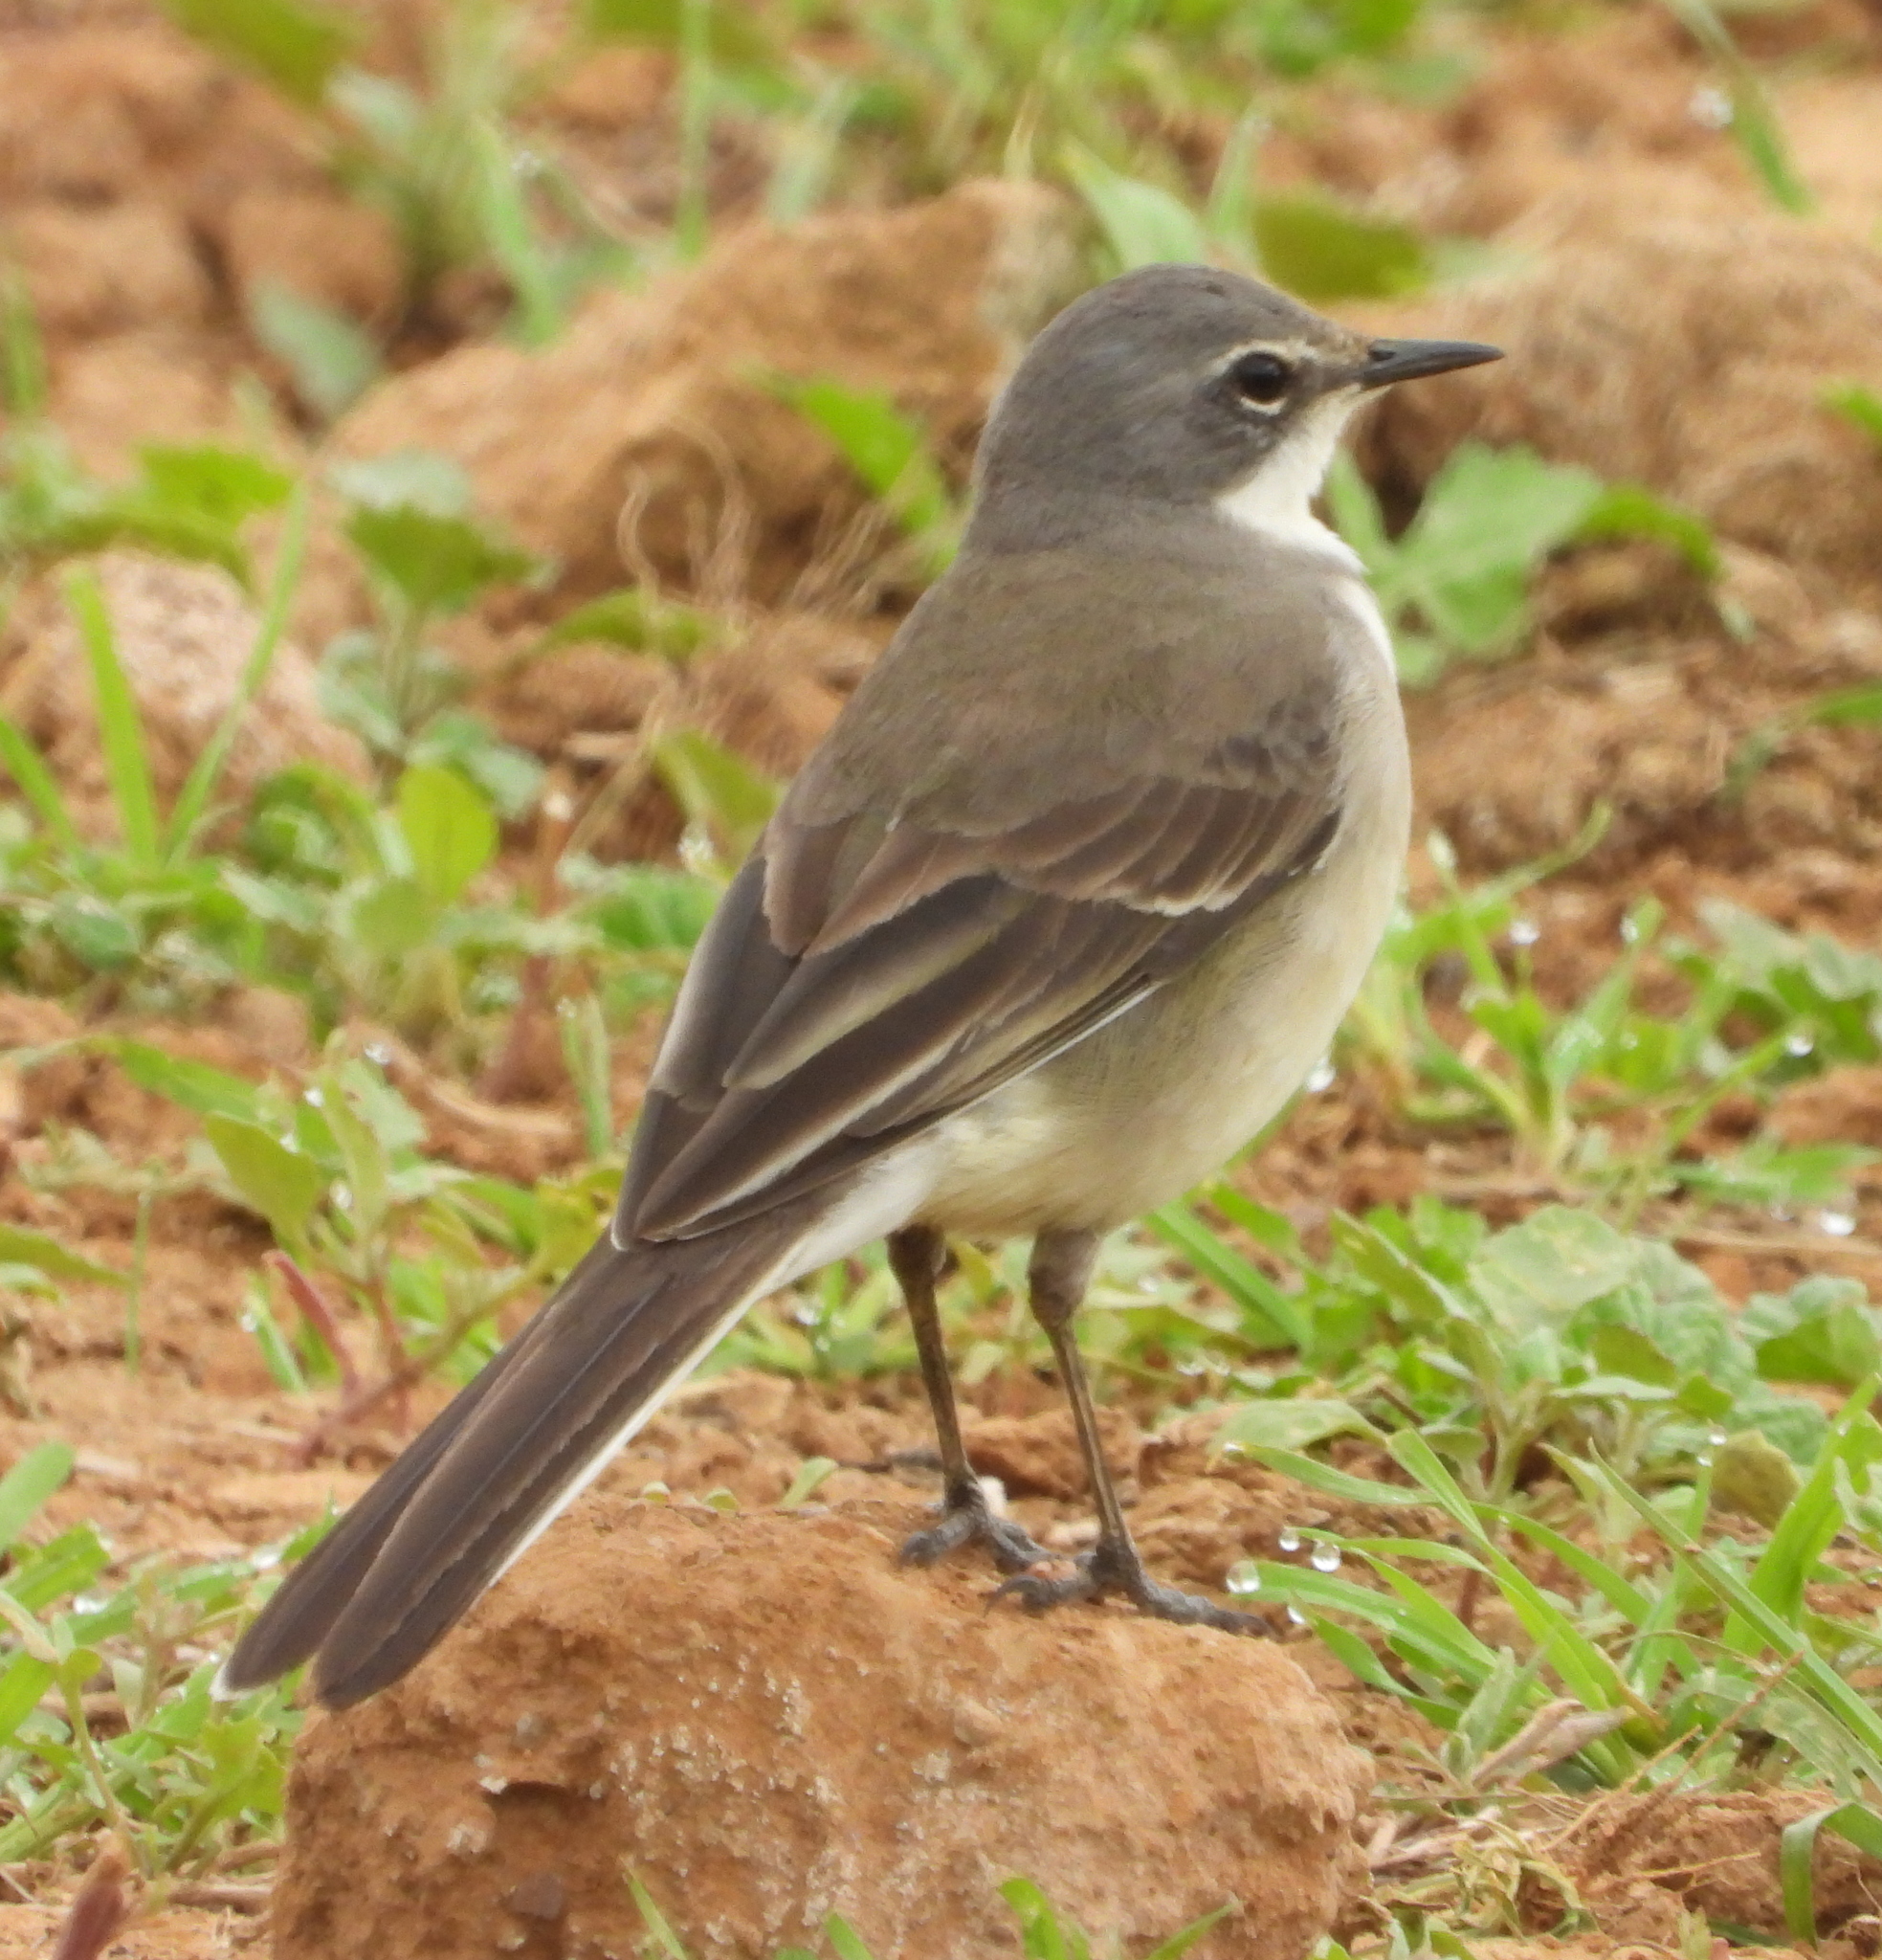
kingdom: Animalia
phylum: Chordata
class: Aves
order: Passeriformes
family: Motacillidae
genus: Motacilla
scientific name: Motacilla capensis
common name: Cape wagtail
